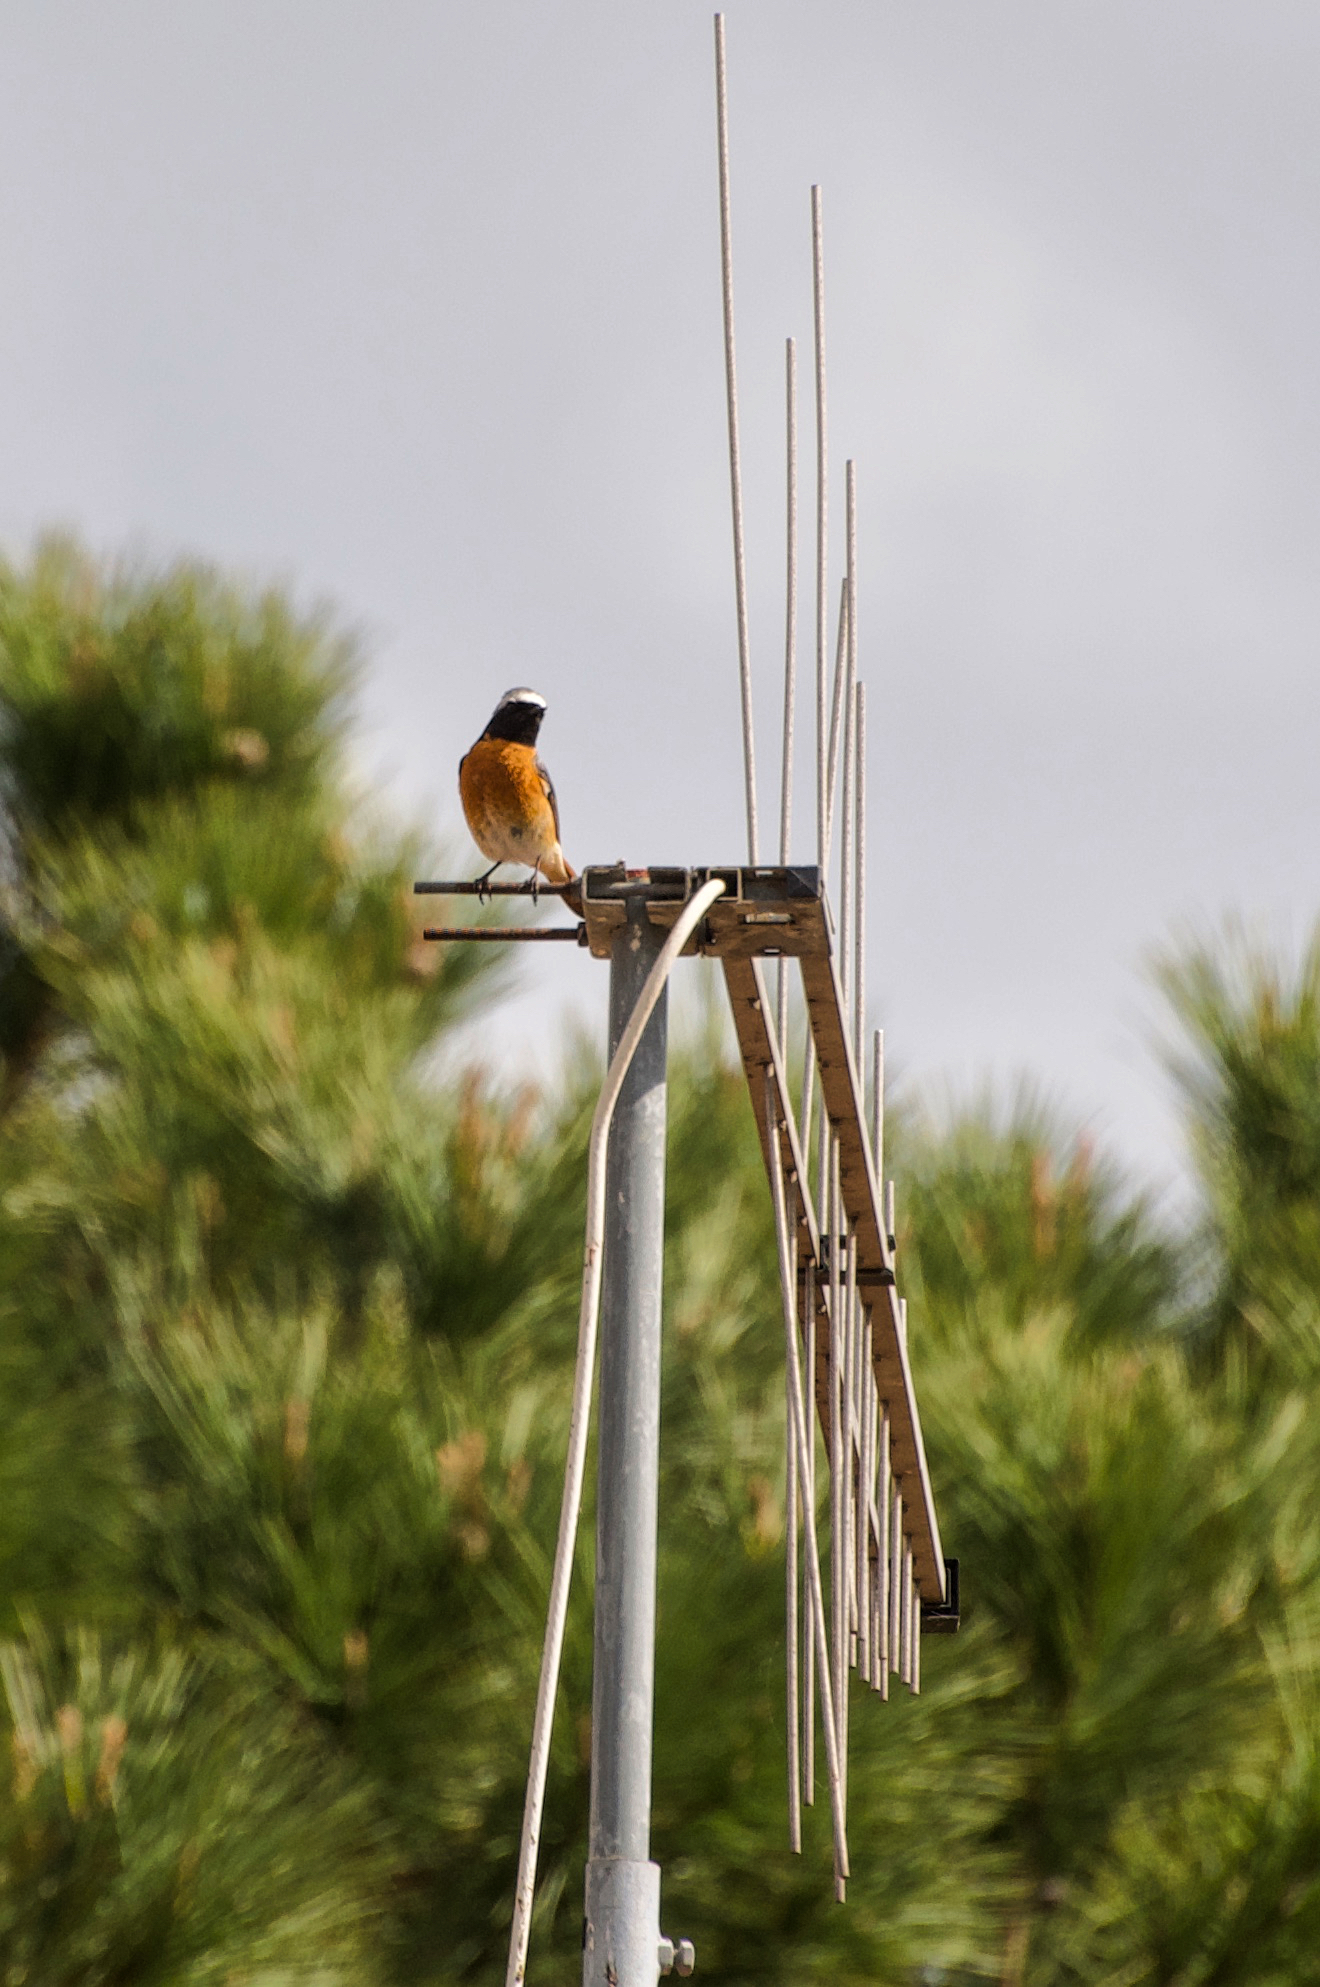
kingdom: Animalia
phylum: Chordata
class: Aves
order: Passeriformes
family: Muscicapidae
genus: Phoenicurus
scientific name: Phoenicurus phoenicurus
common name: Common redstart
